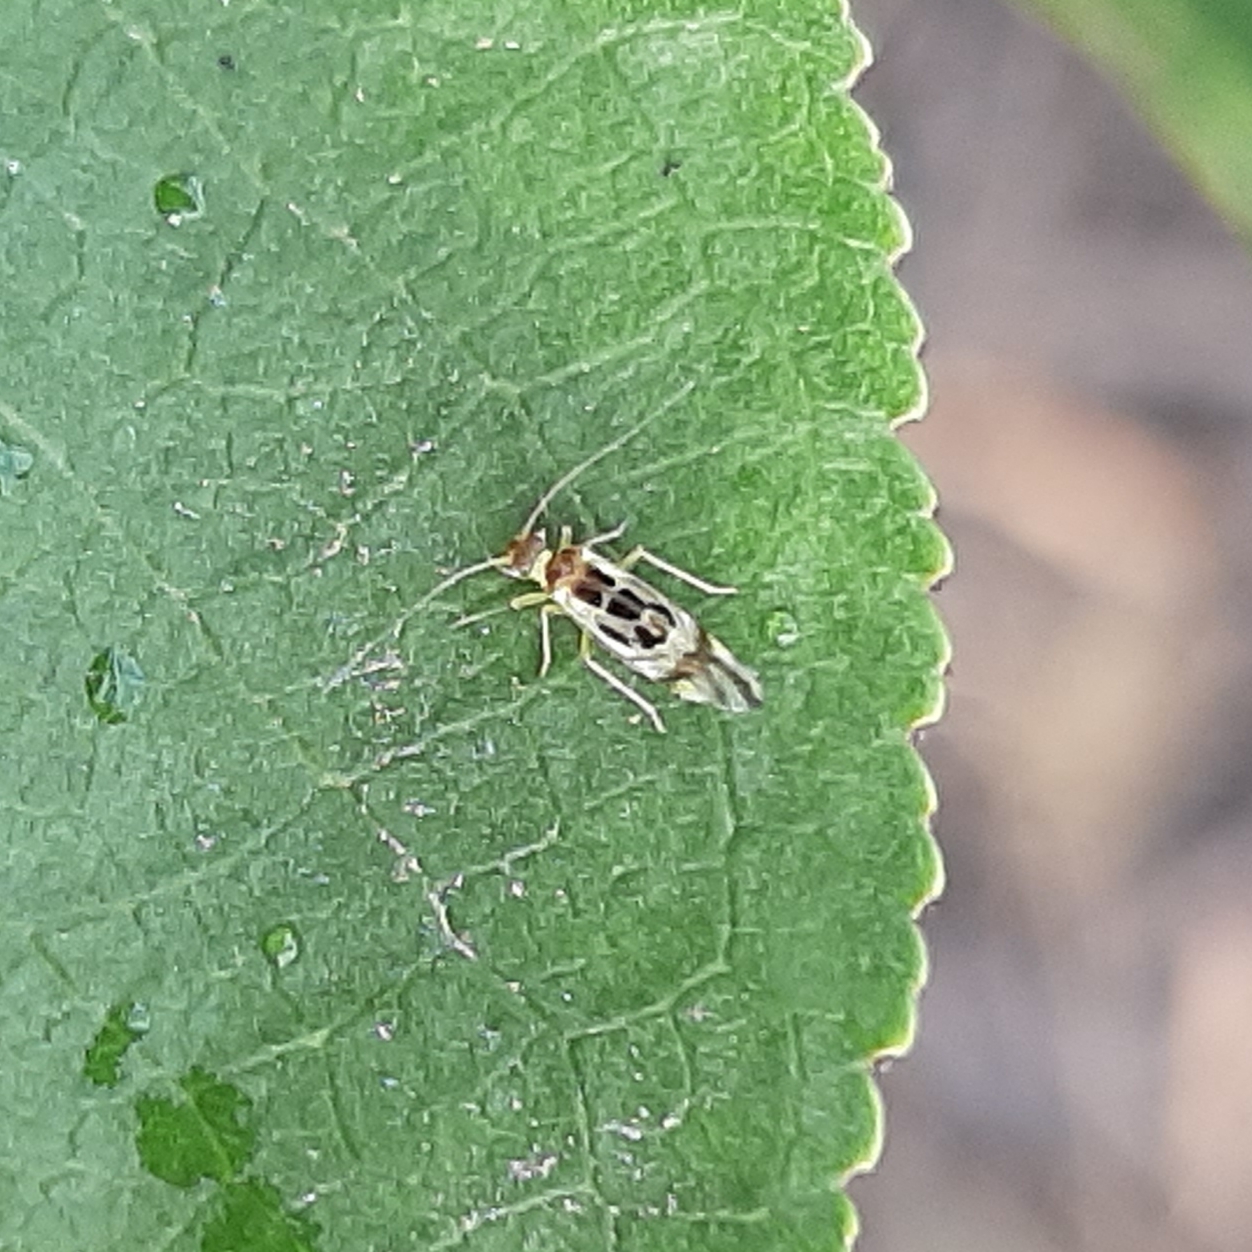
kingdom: Animalia
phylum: Arthropoda
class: Insecta
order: Psocodea
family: Stenopsocidae
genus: Graphopsocus
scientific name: Graphopsocus cruciatus
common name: Lizard bark louse
